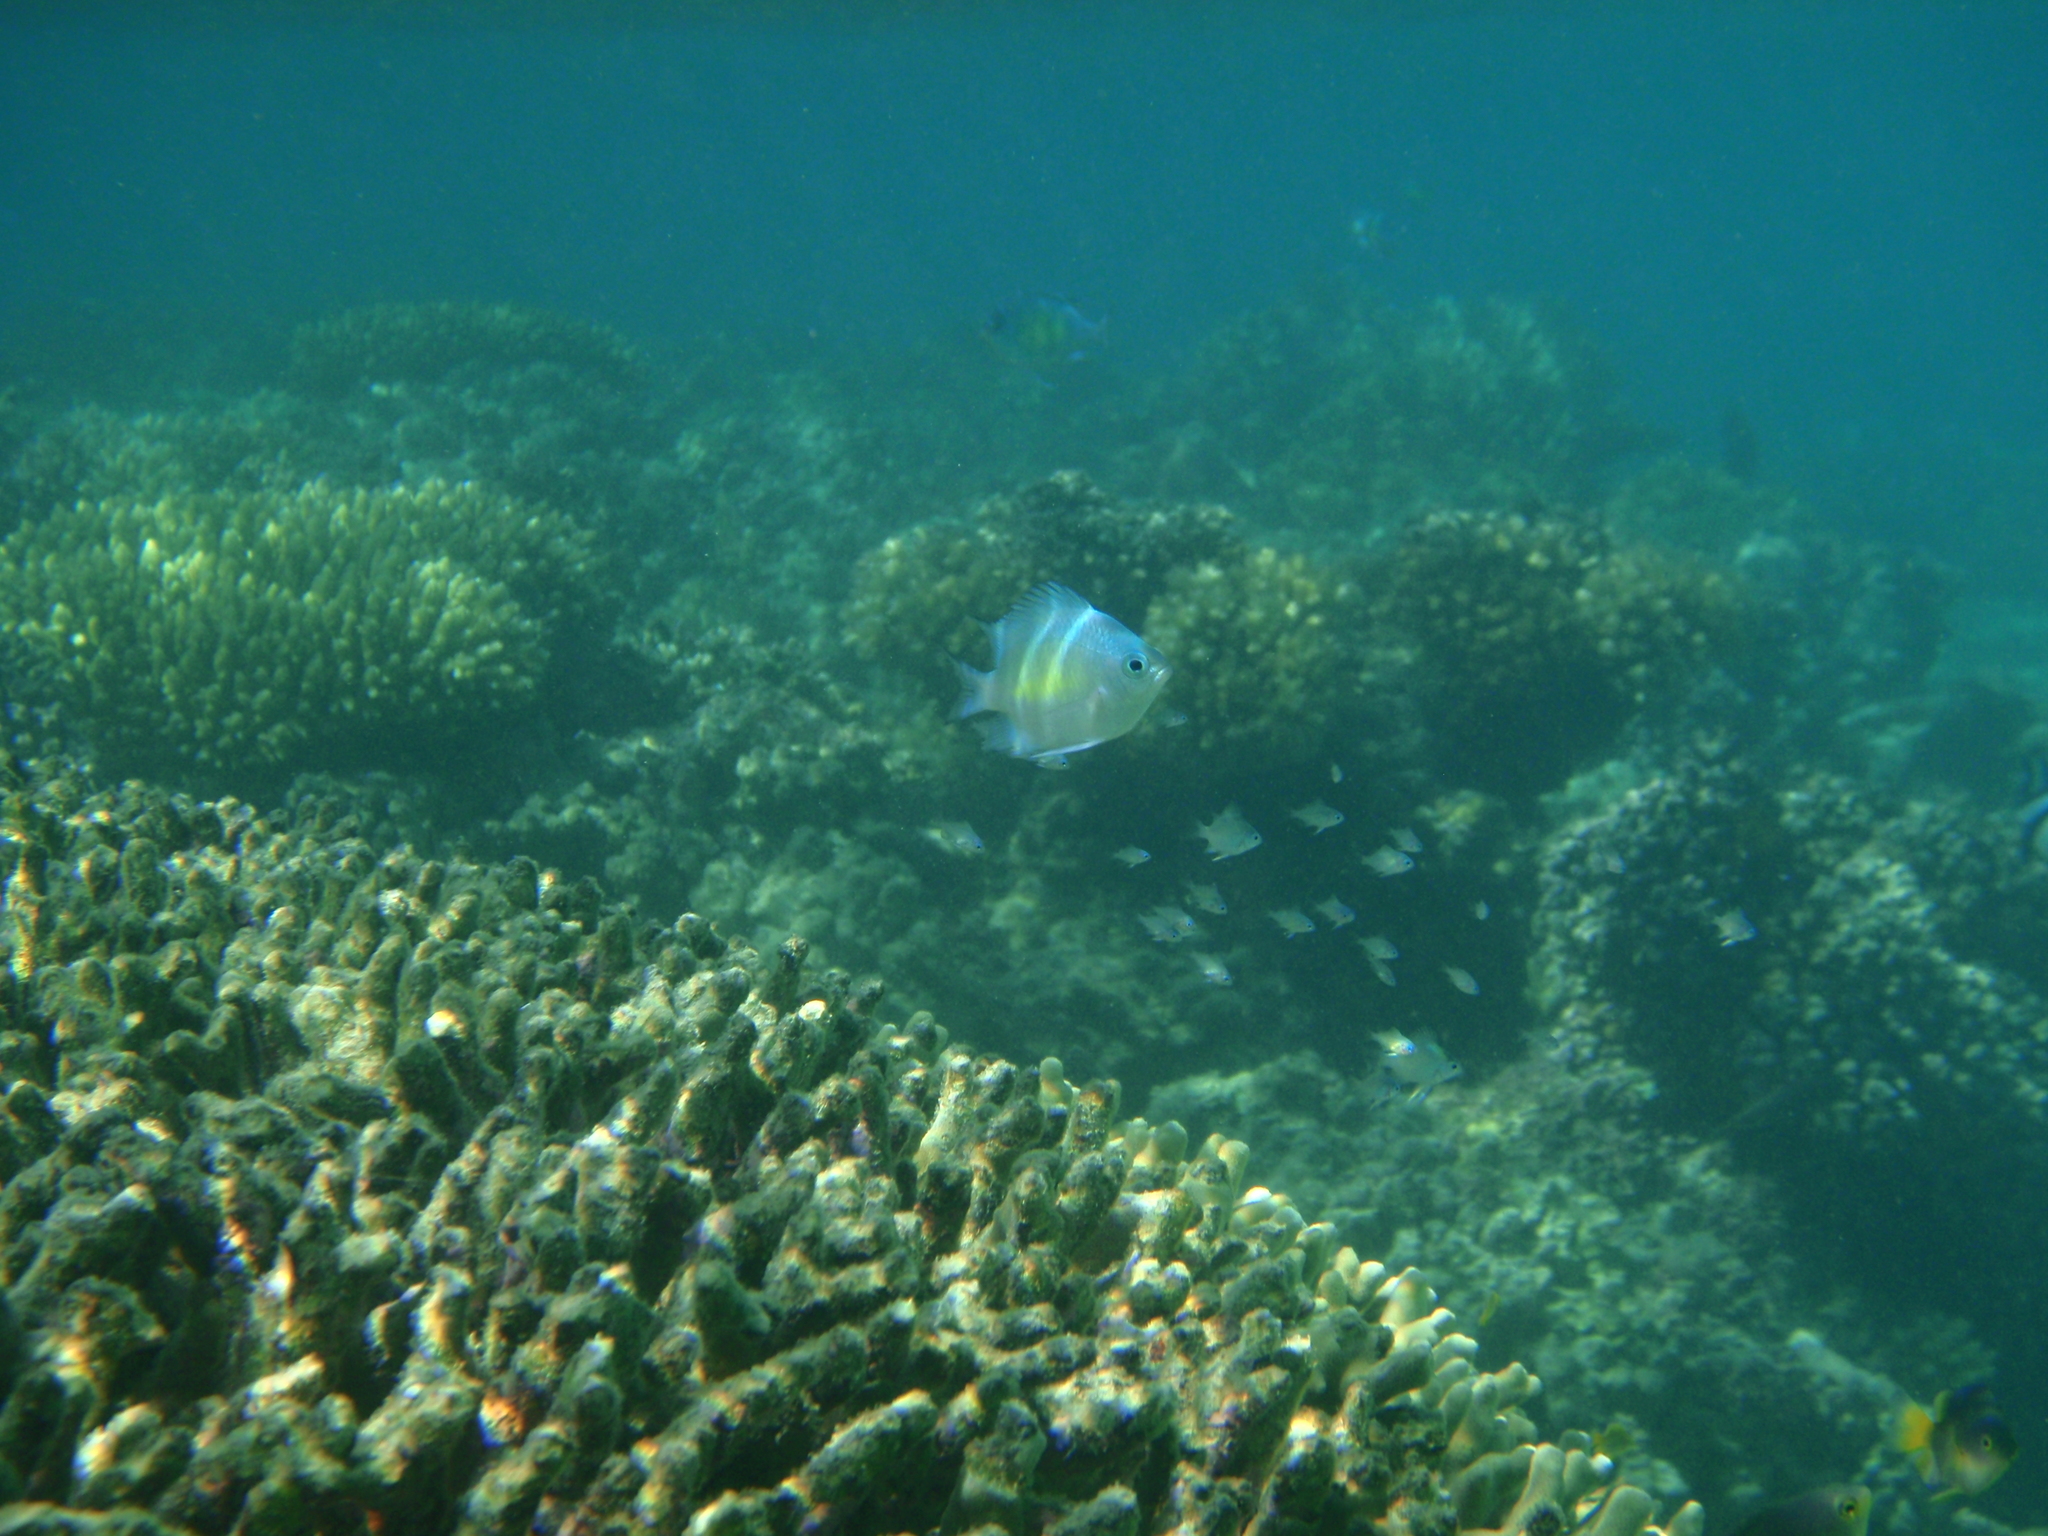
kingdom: Animalia
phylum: Chordata
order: Perciformes
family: Pomacentridae
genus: Amblyglyphidodon
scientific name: Amblyglyphidodon curacao
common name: Staghorn damsel
